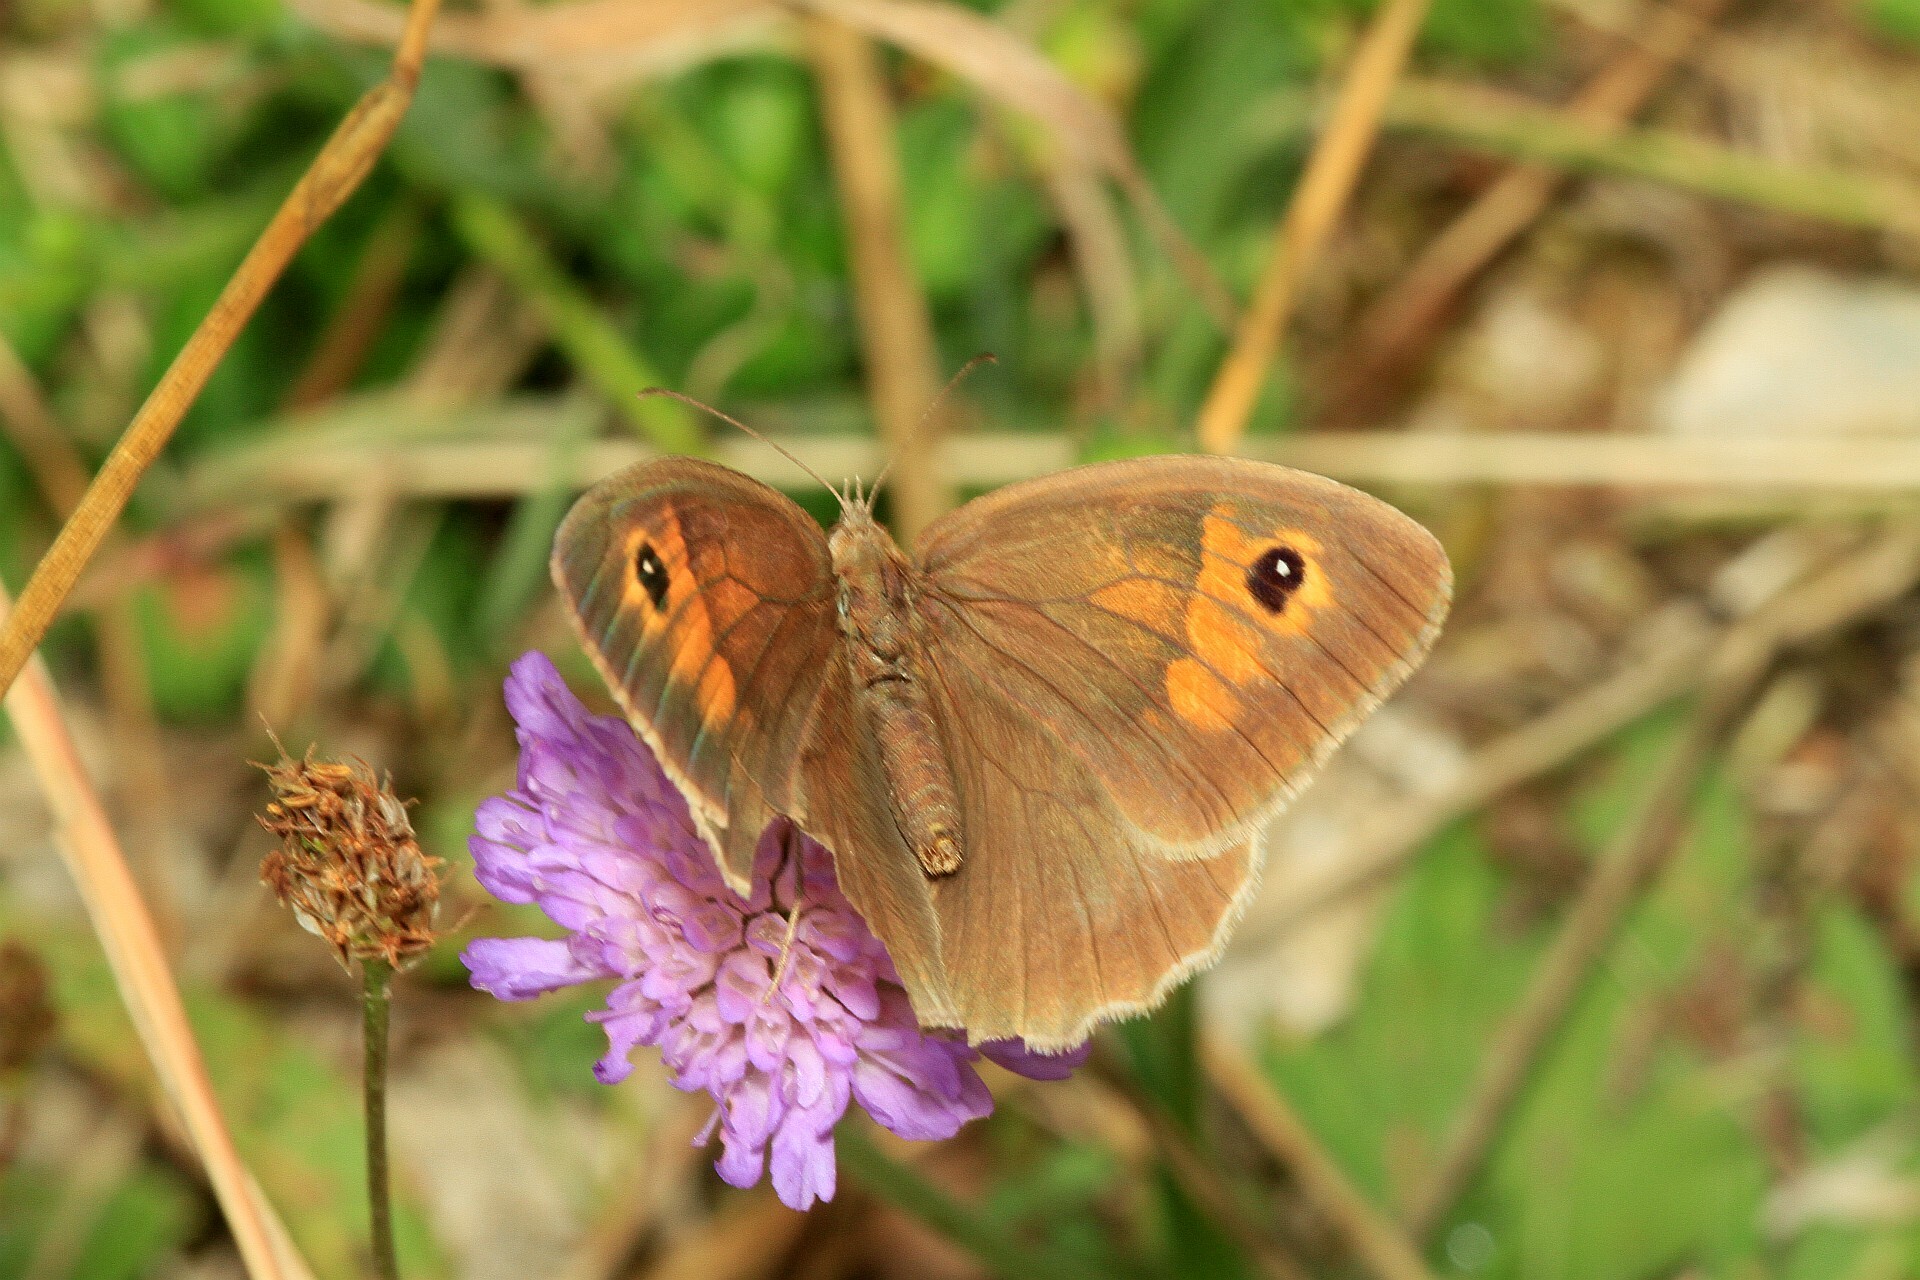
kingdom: Animalia
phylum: Arthropoda
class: Insecta
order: Lepidoptera
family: Nymphalidae
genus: Maniola
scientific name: Maniola jurtina
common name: Meadow brown
